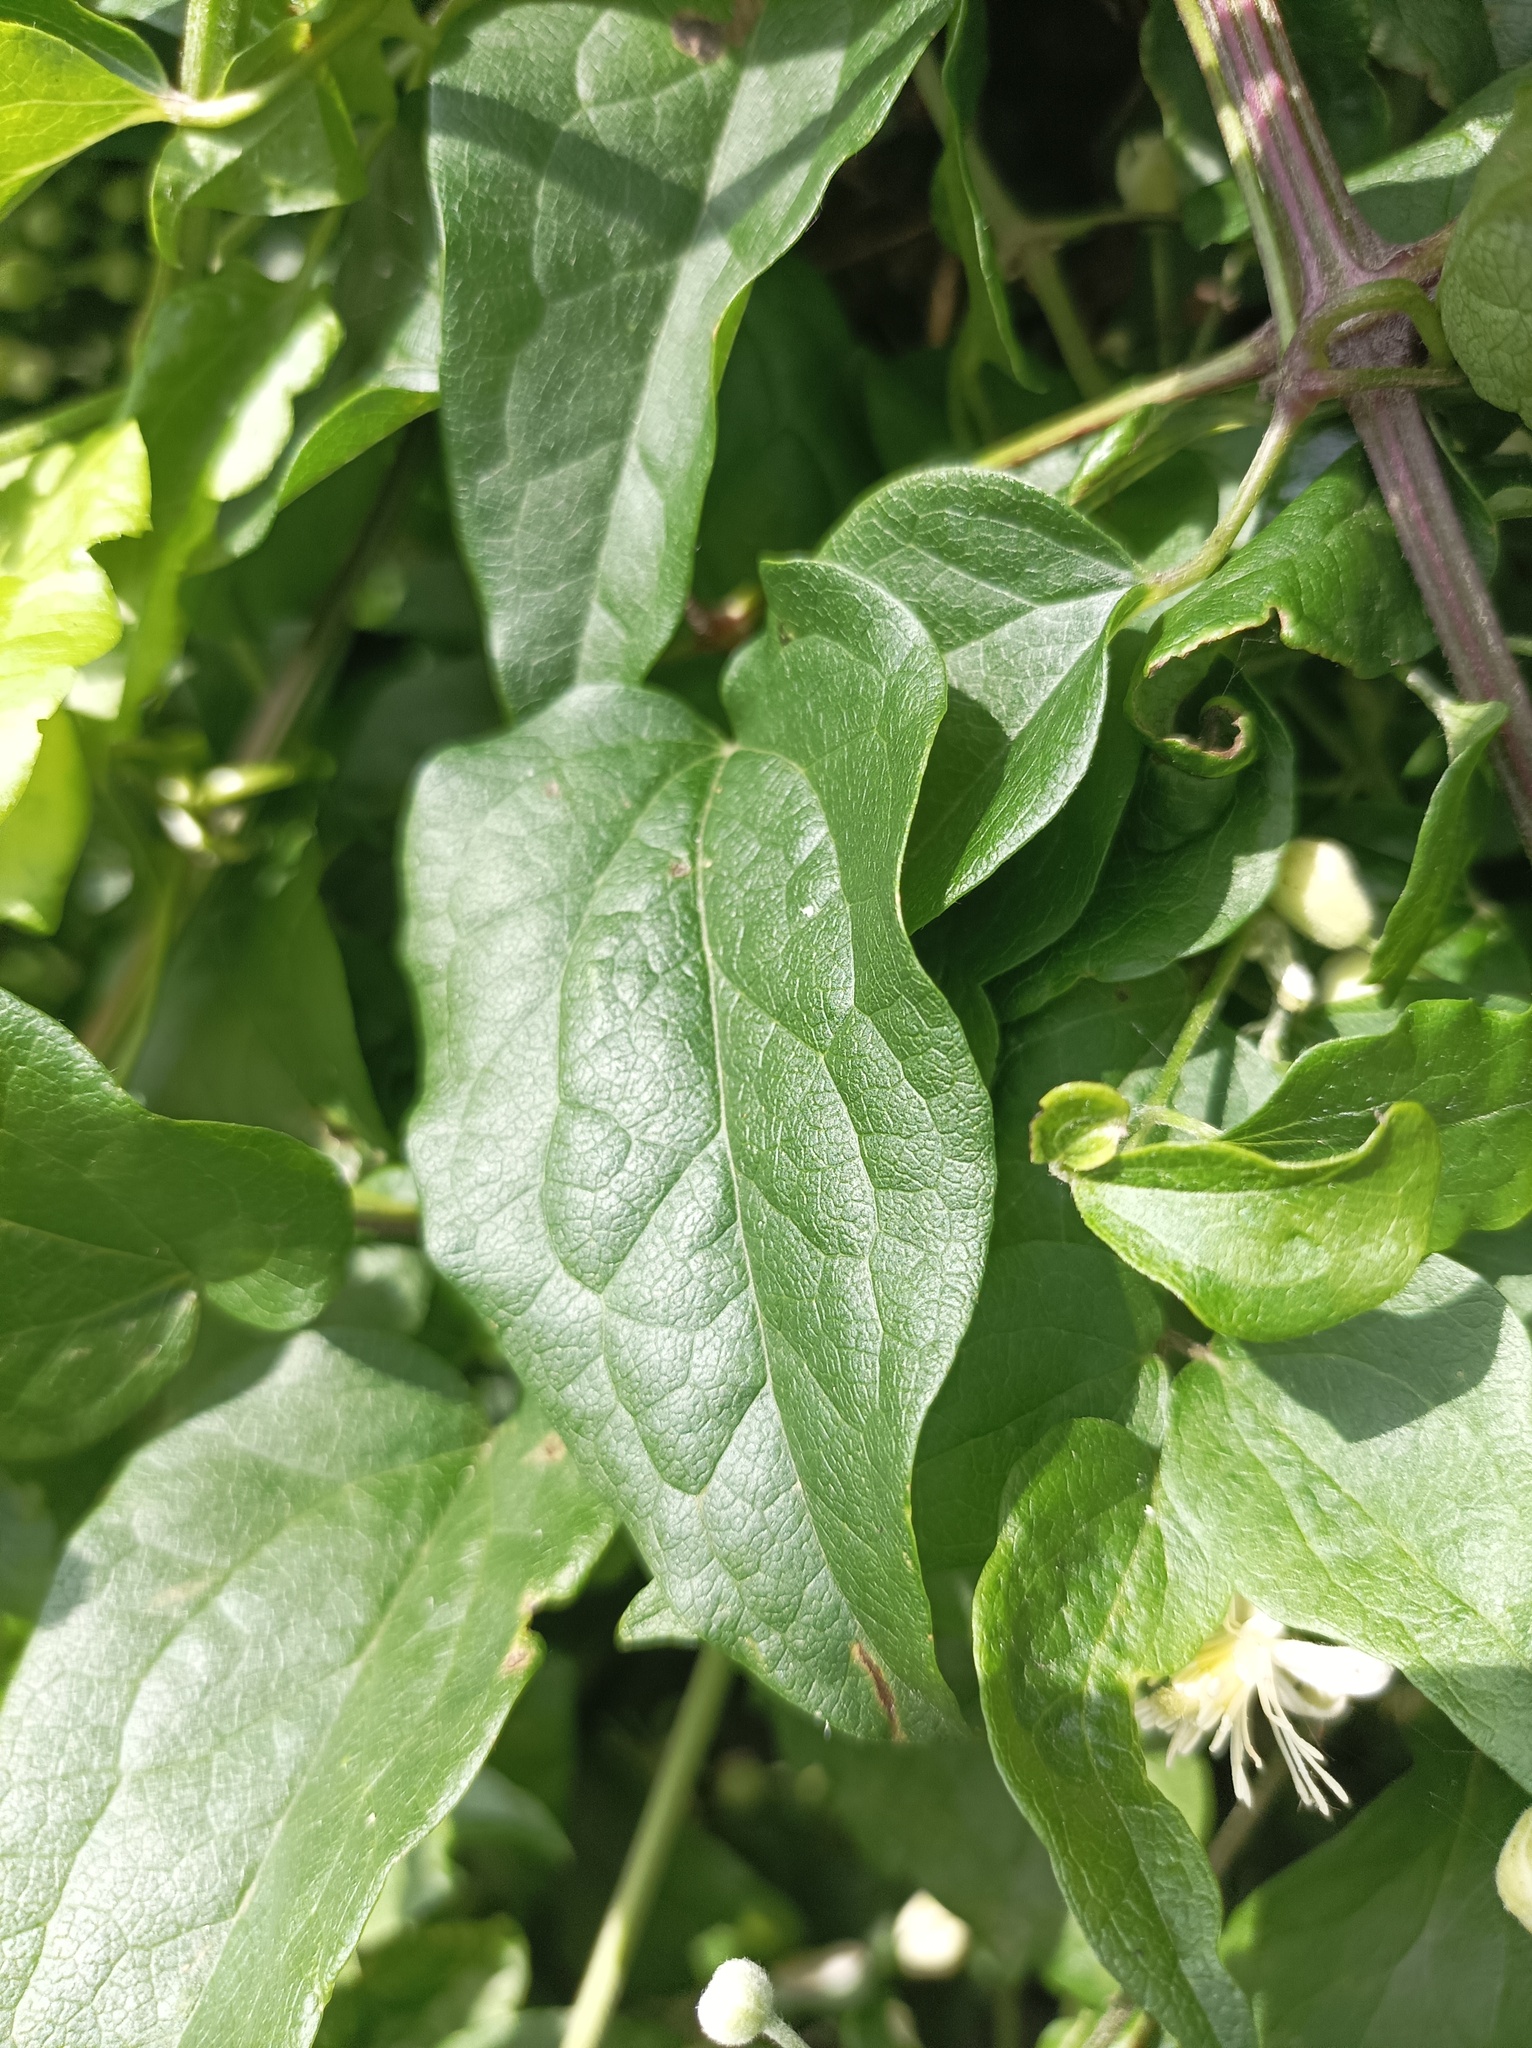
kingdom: Plantae
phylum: Tracheophyta
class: Magnoliopsida
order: Ranunculales
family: Ranunculaceae
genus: Clematis
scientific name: Clematis vitalba
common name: Evergreen clematis
